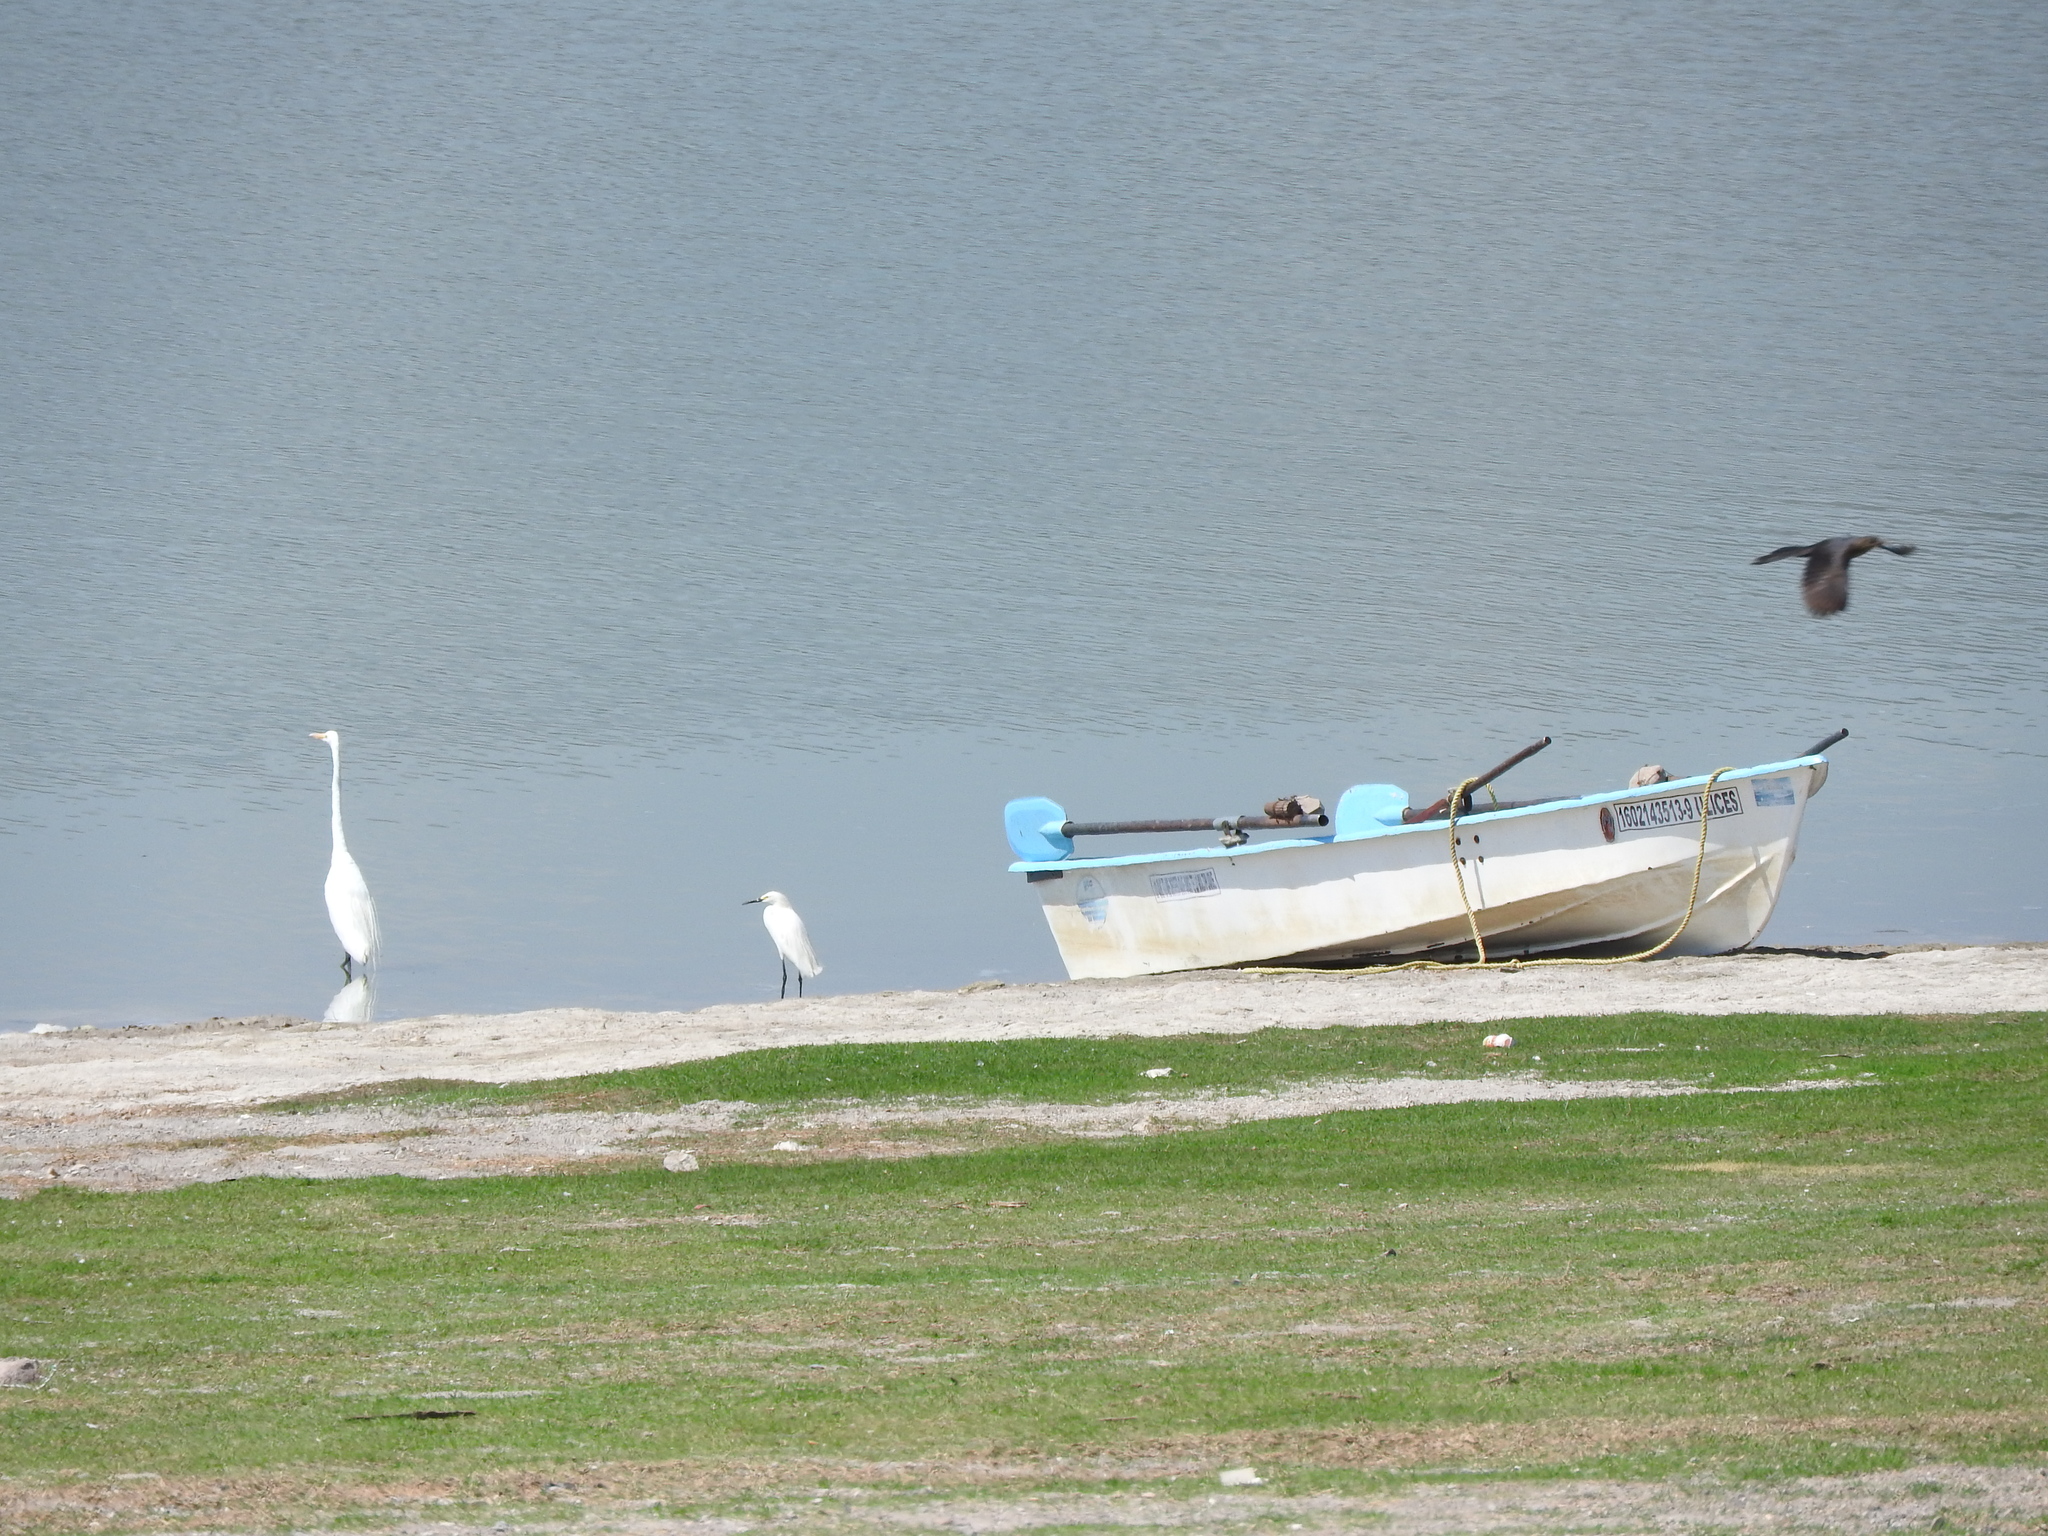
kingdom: Animalia
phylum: Chordata
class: Aves
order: Pelecaniformes
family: Ardeidae
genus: Egretta
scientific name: Egretta thula
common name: Snowy egret
